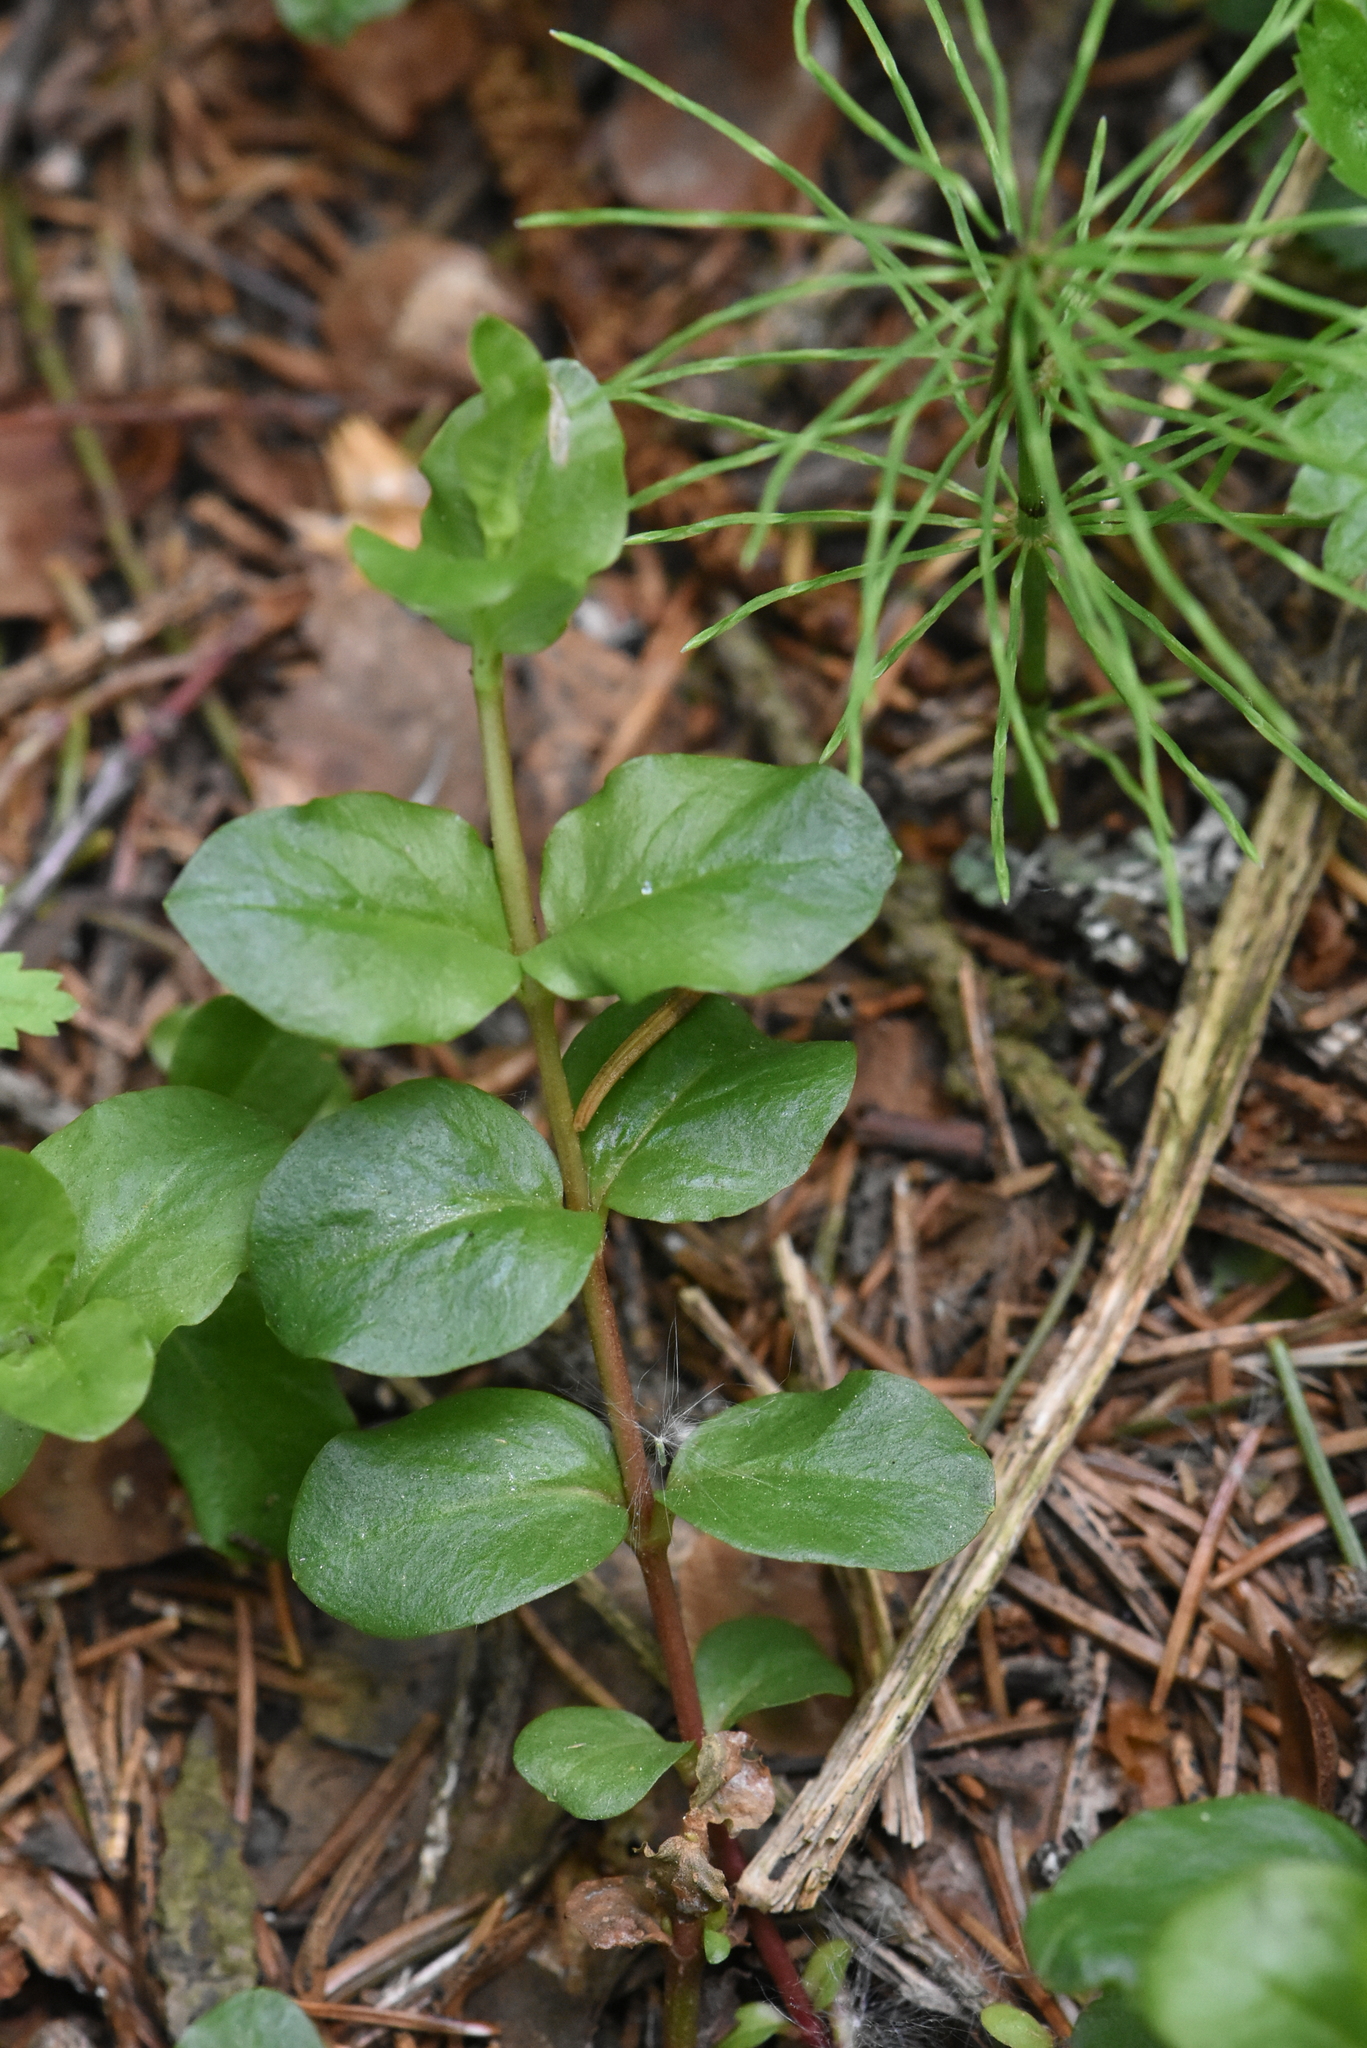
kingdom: Plantae
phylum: Tracheophyta
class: Magnoliopsida
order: Ericales
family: Primulaceae
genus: Lysimachia
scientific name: Lysimachia nummularia
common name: Moneywort
